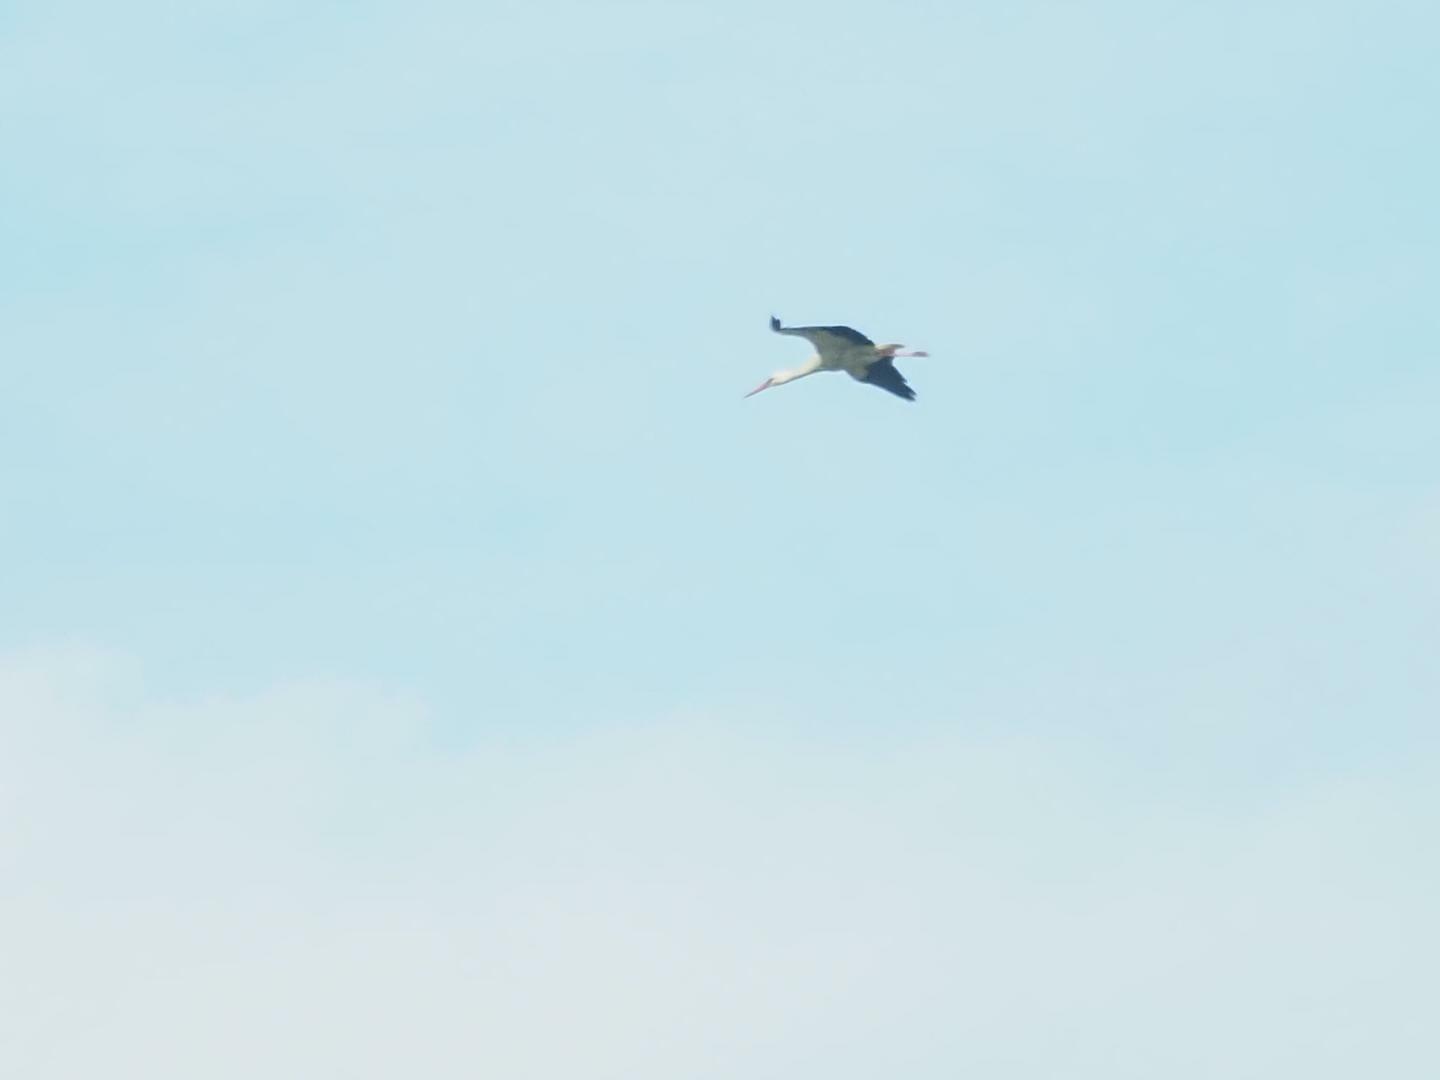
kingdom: Animalia
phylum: Chordata
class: Aves
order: Ciconiiformes
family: Ciconiidae
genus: Ciconia
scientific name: Ciconia ciconia
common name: White stork
